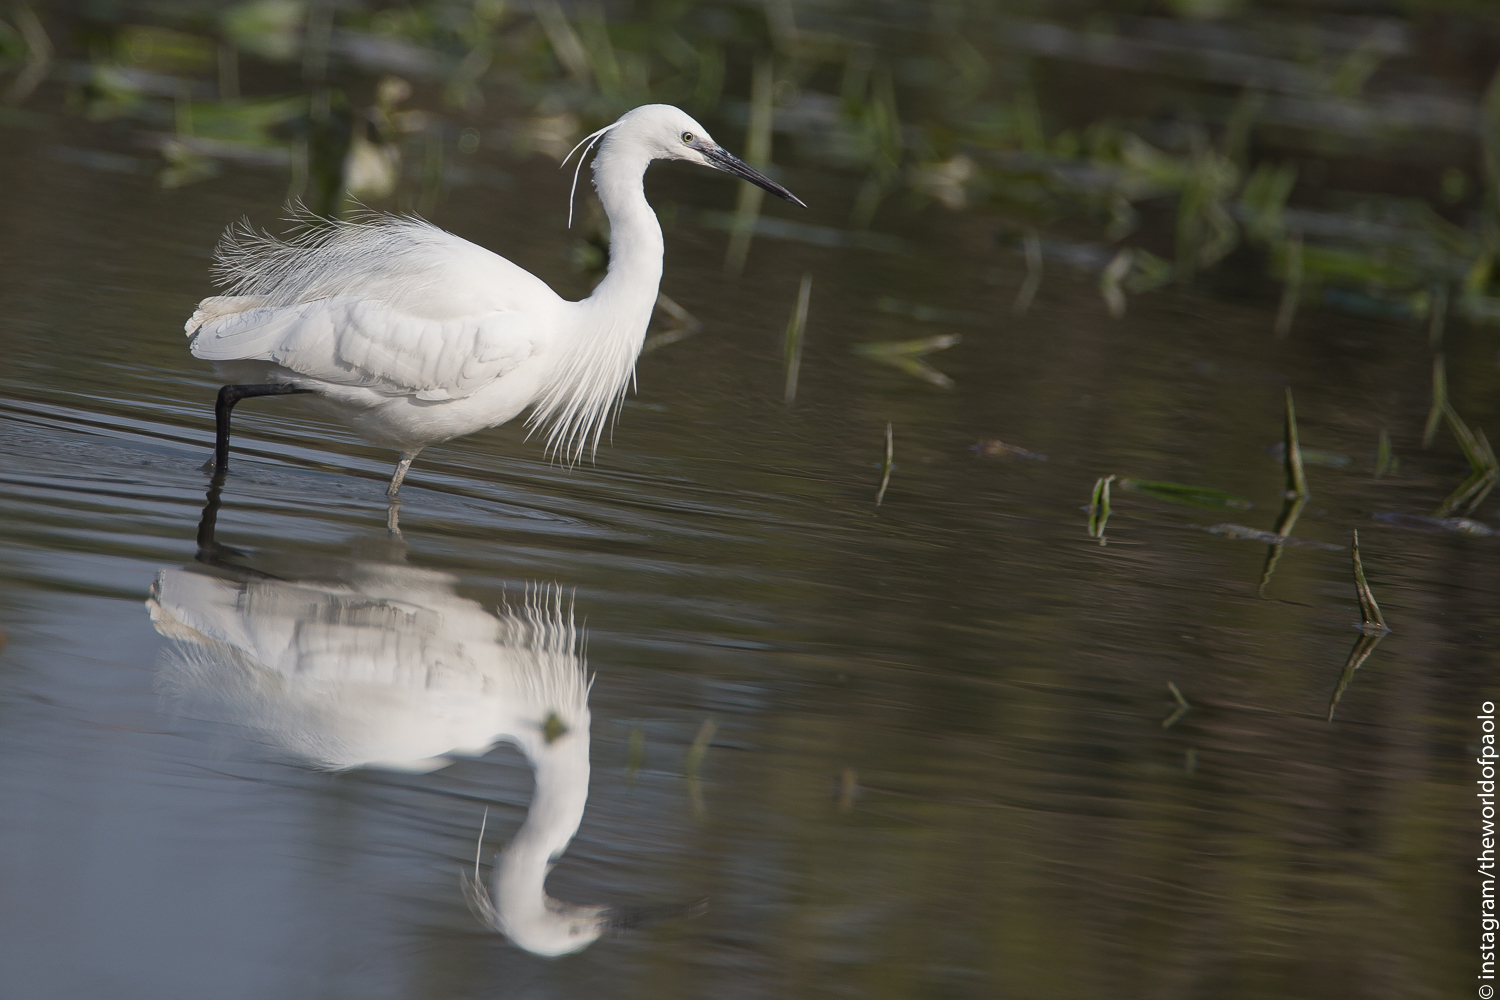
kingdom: Animalia
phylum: Chordata
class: Aves
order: Pelecaniformes
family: Ardeidae
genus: Egretta
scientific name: Egretta garzetta
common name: Little egret
